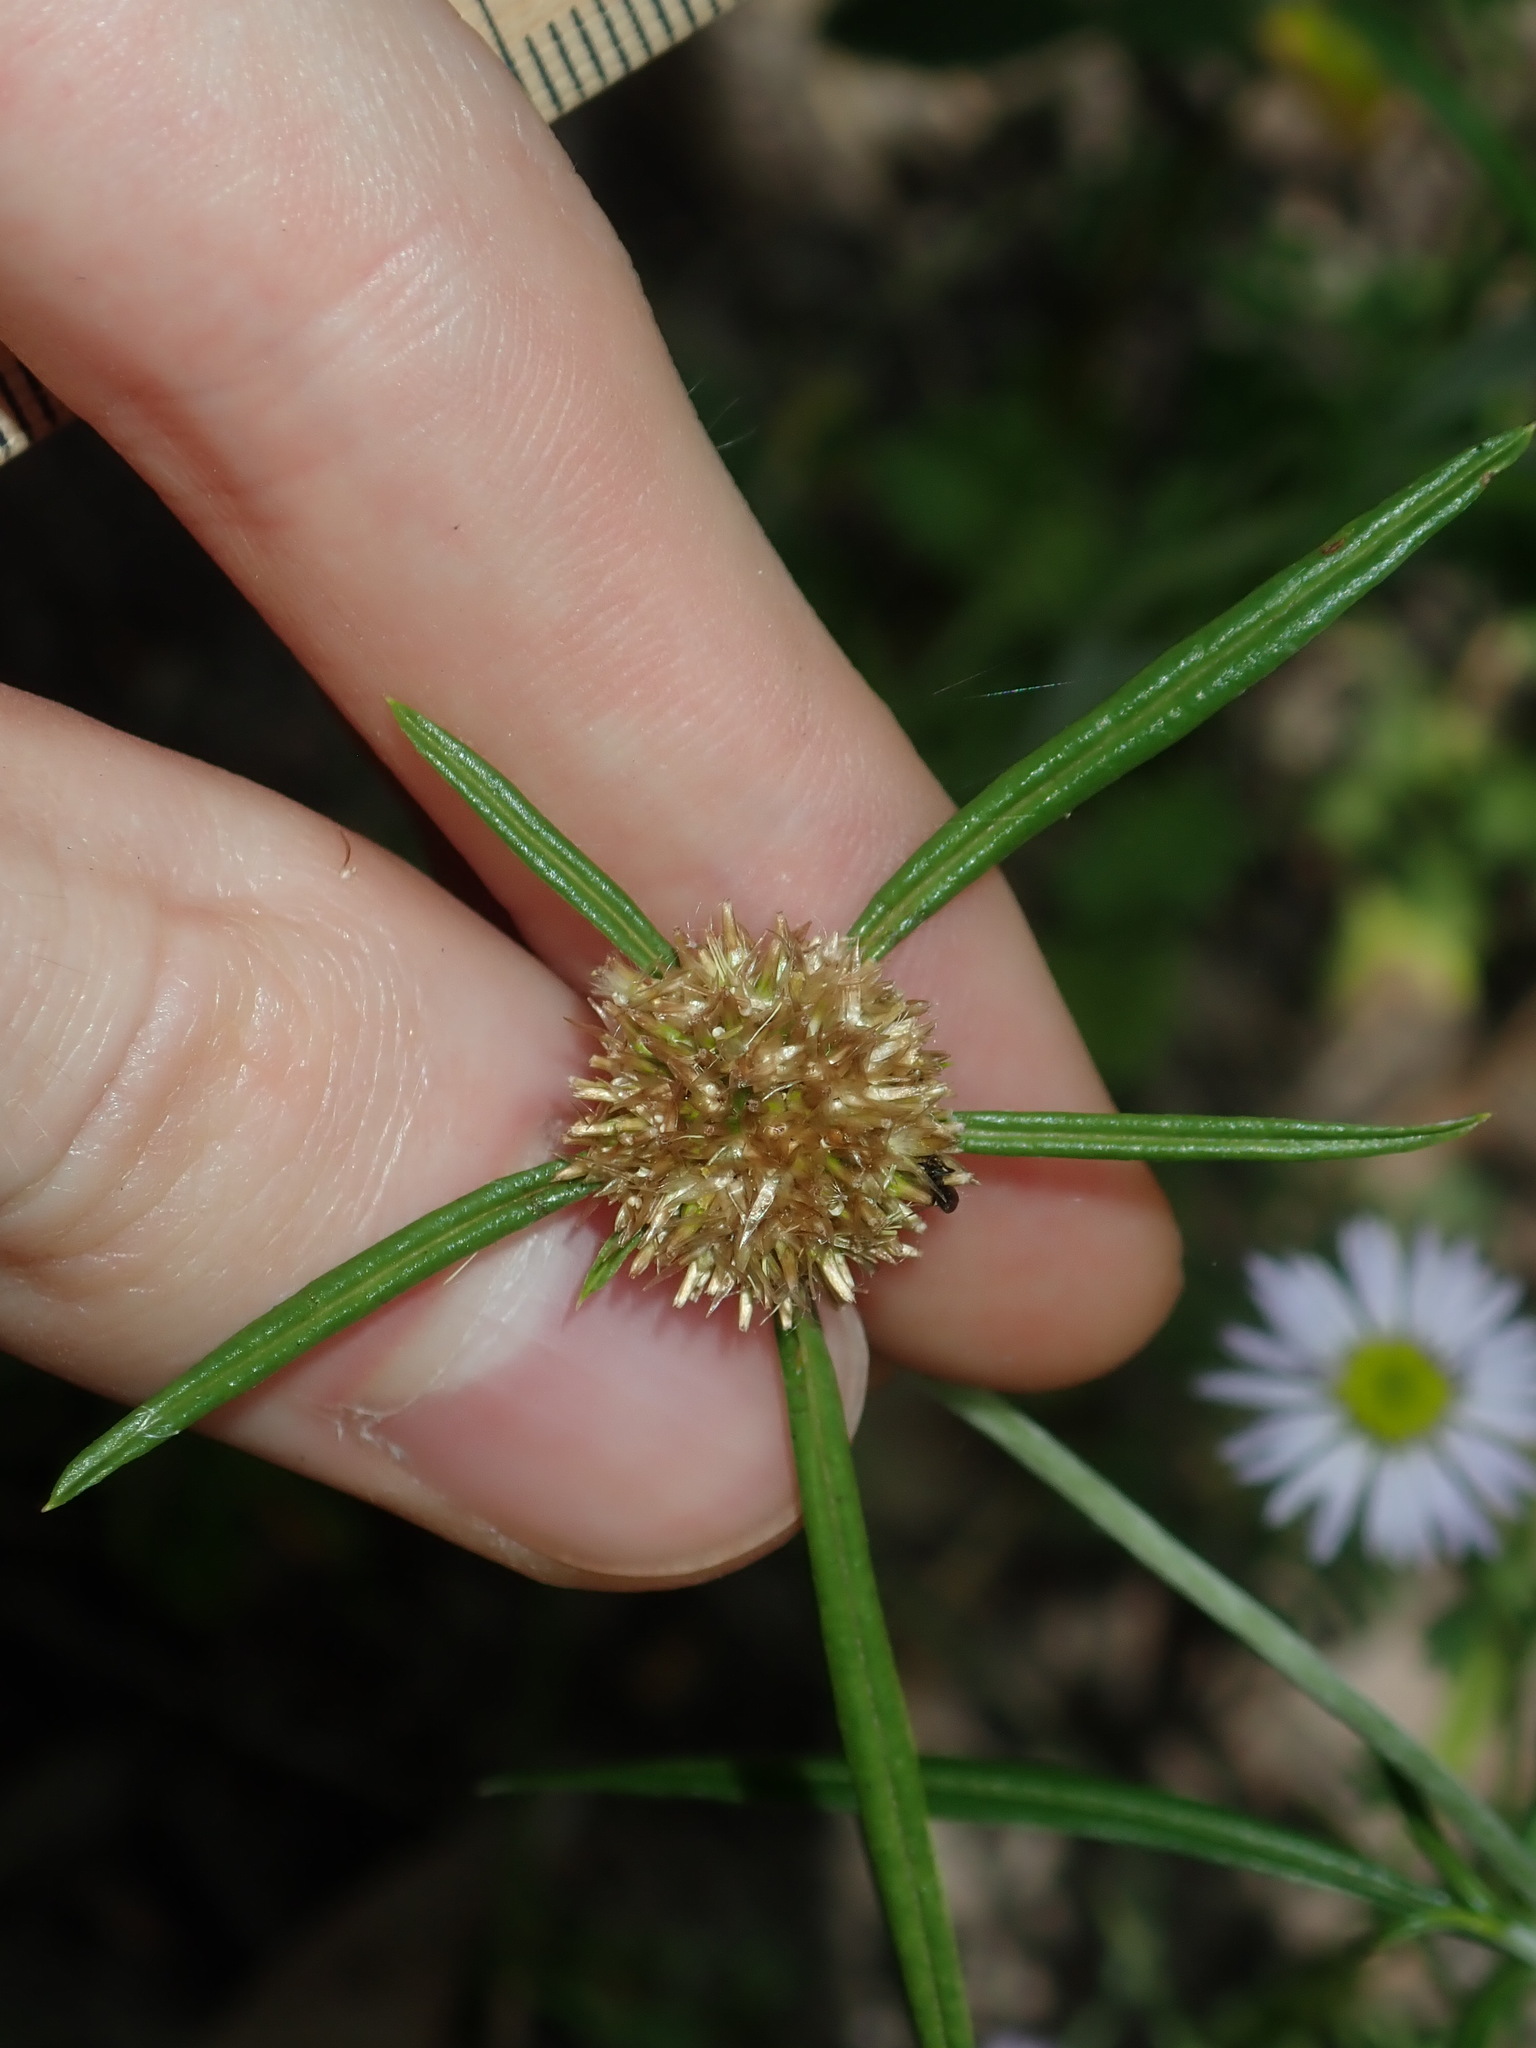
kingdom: Plantae
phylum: Tracheophyta
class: Magnoliopsida
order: Asterales
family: Asteraceae
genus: Euchiton
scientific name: Euchiton sphaericus
